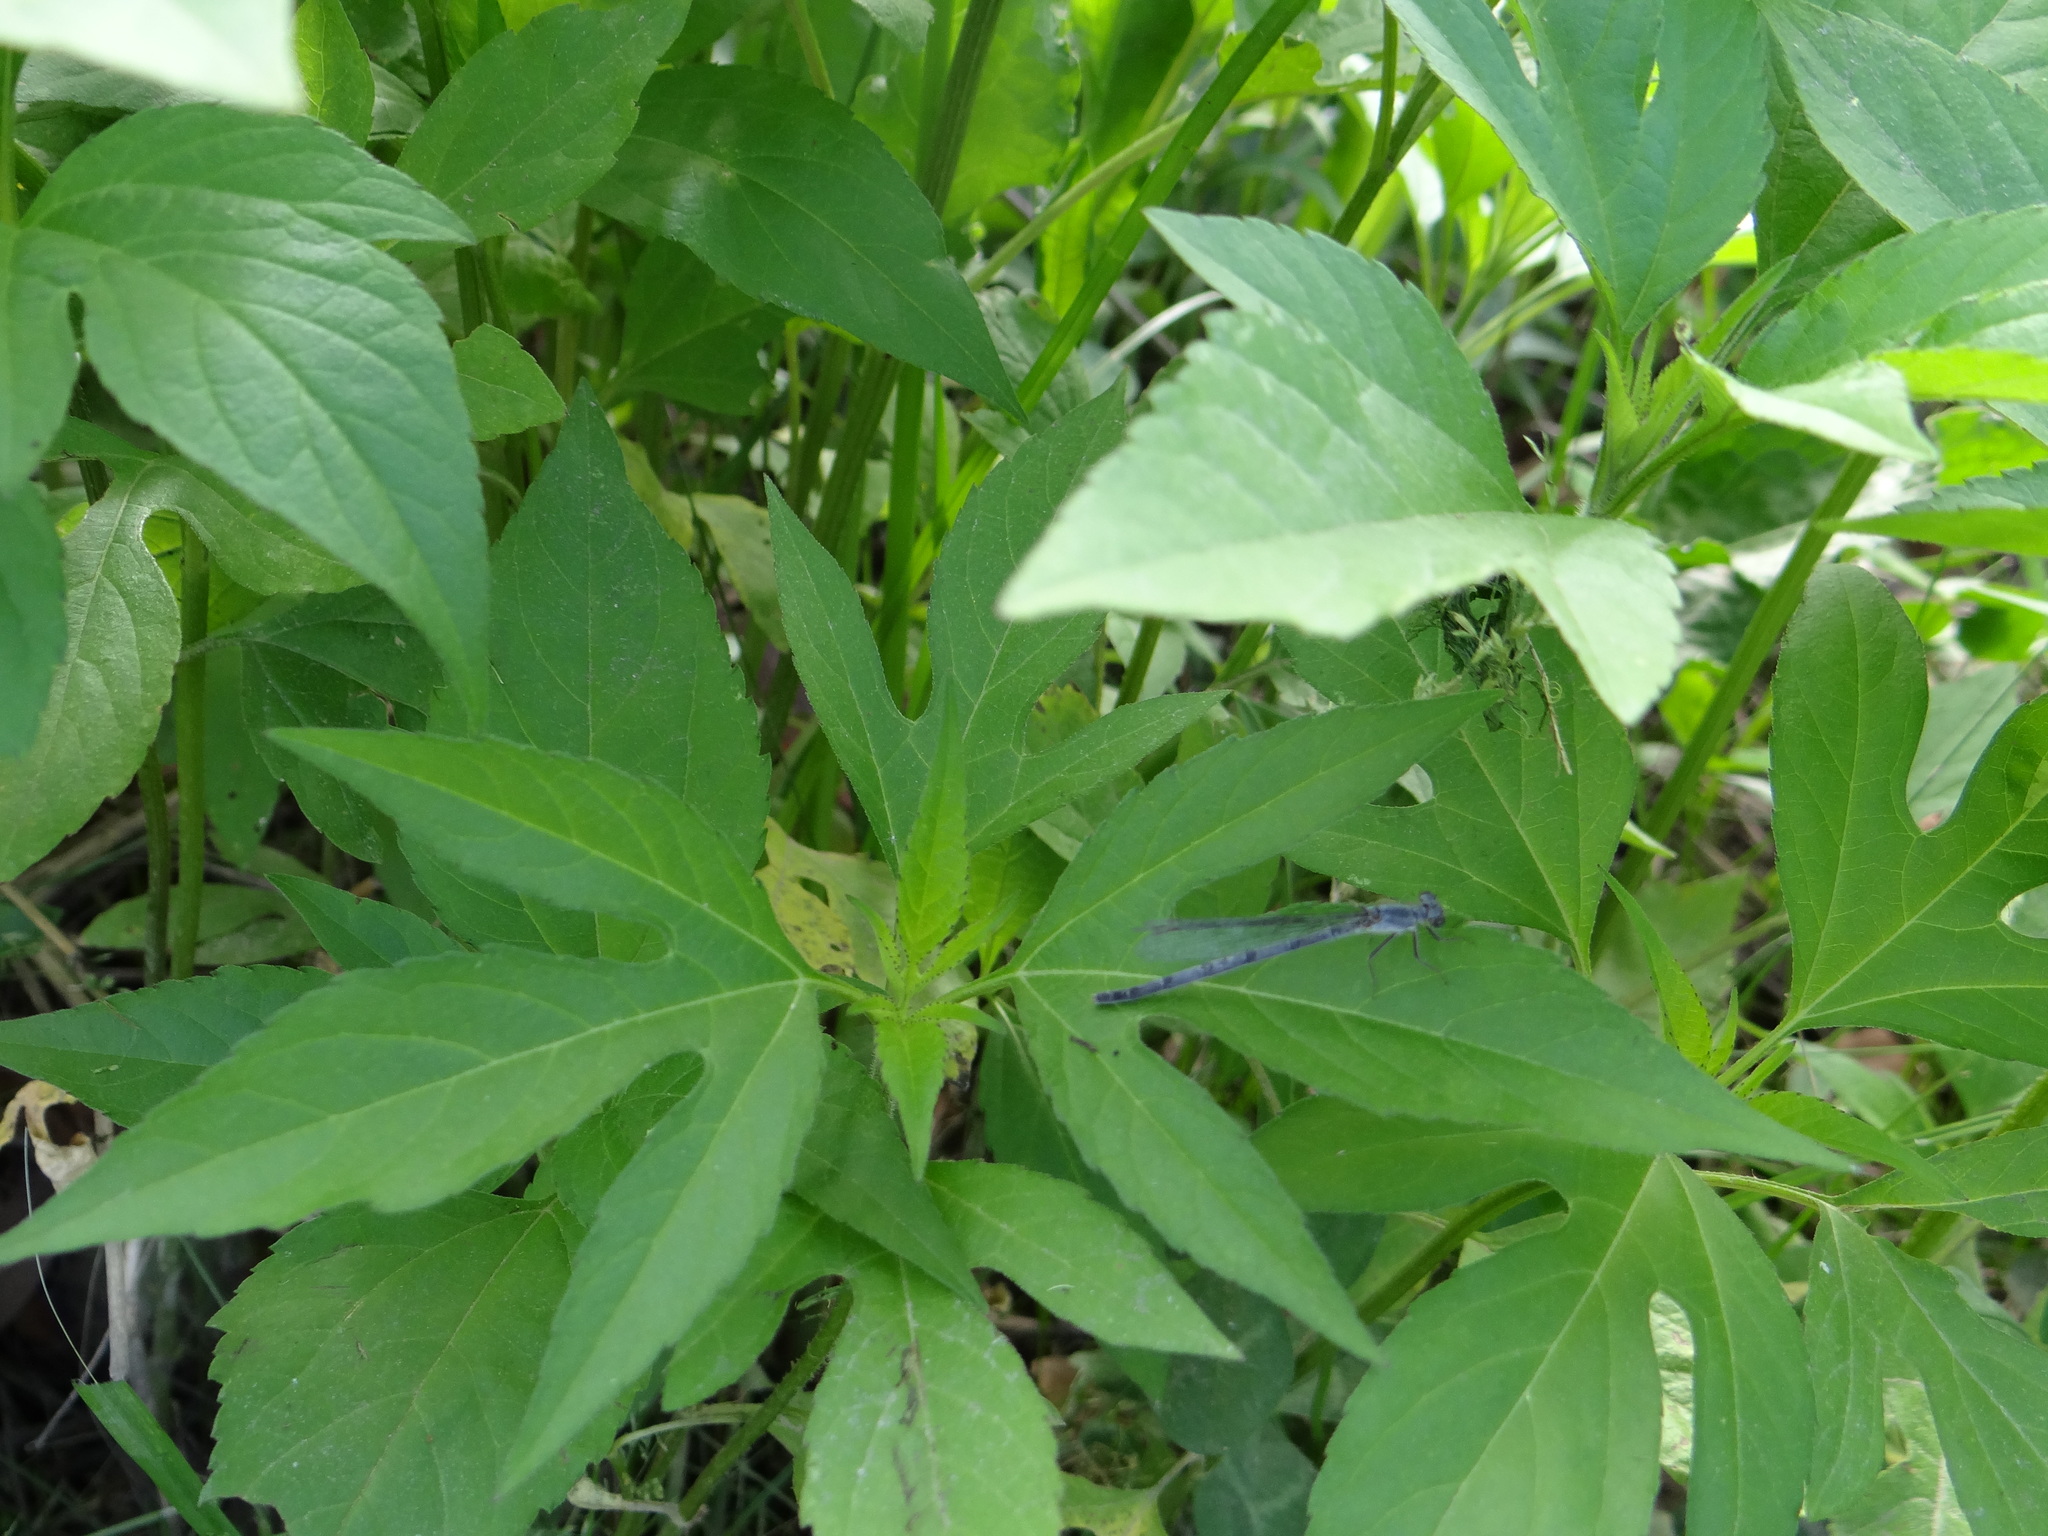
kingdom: Animalia
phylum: Arthropoda
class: Insecta
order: Odonata
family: Coenagrionidae
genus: Ischnura
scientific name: Ischnura posita
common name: Fragile forktail
